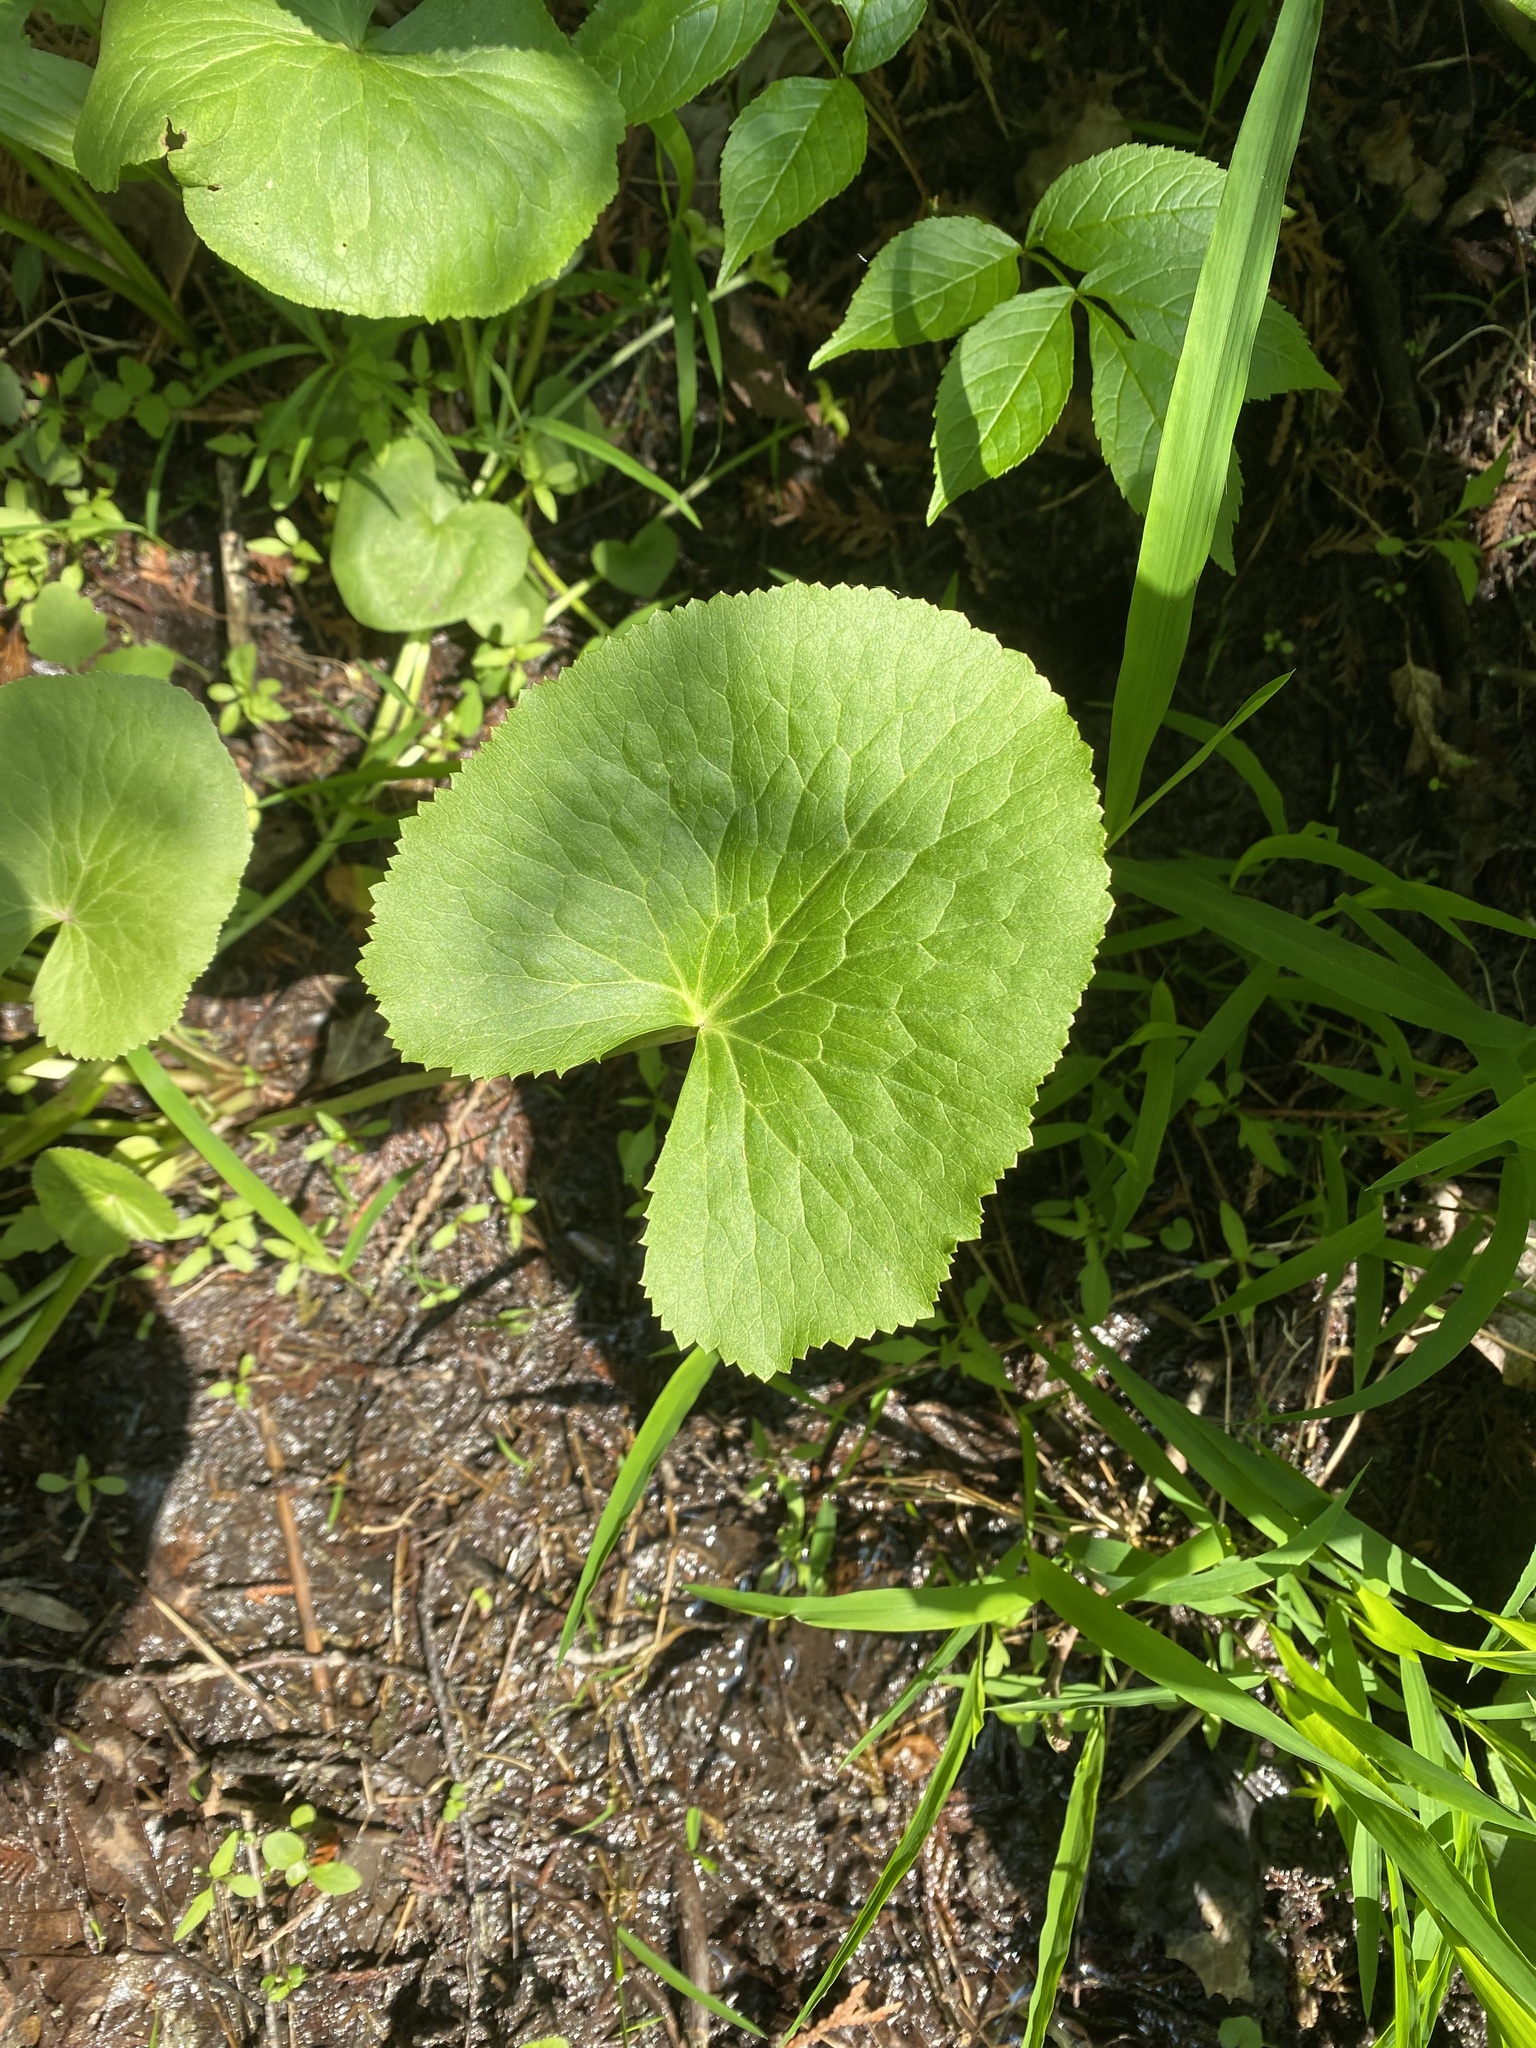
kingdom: Plantae
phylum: Tracheophyta
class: Magnoliopsida
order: Ranunculales
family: Ranunculaceae
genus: Caltha
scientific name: Caltha palustris
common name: Marsh marigold
